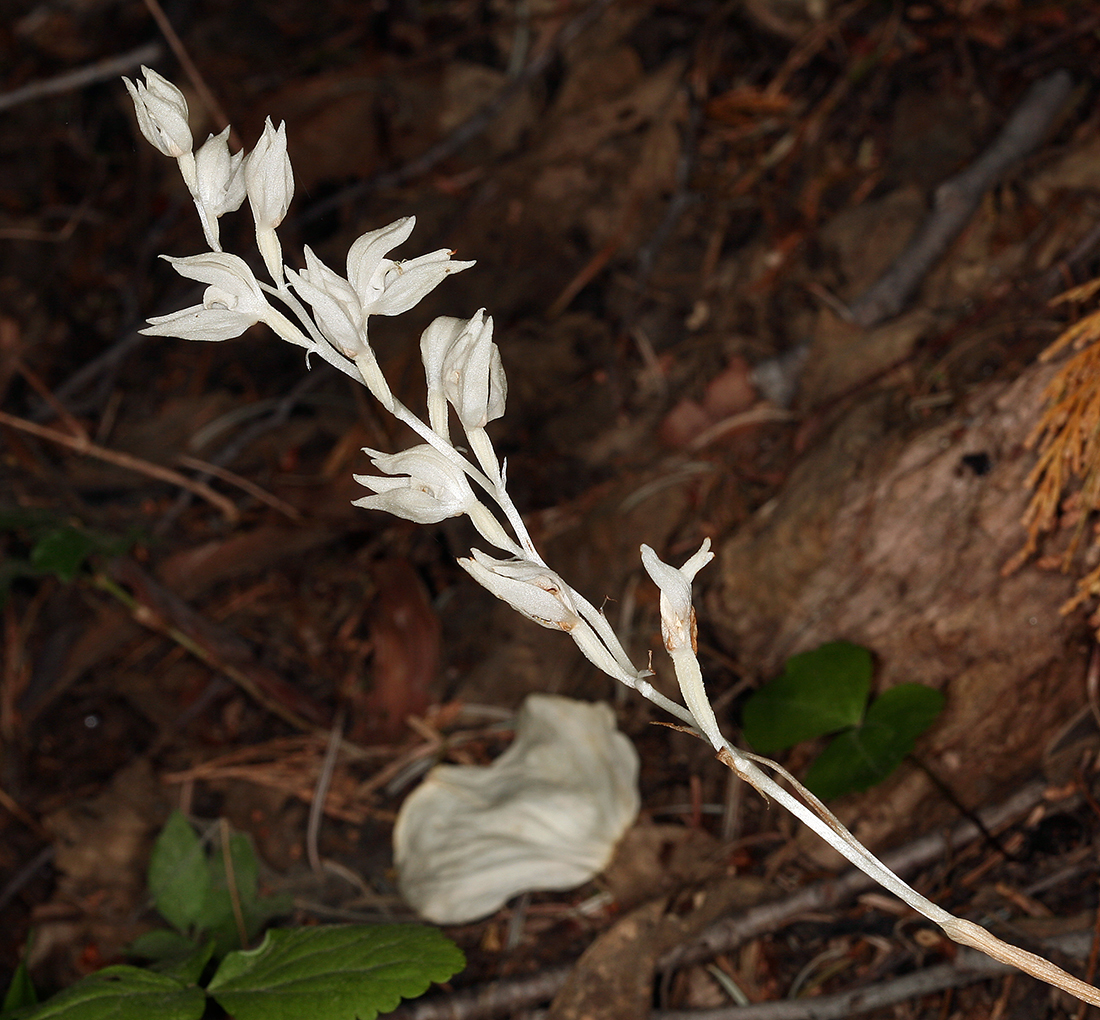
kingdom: Plantae
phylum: Tracheophyta
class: Liliopsida
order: Asparagales
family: Orchidaceae
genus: Cephalanthera
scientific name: Cephalanthera austiniae
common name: Phantom orchid
